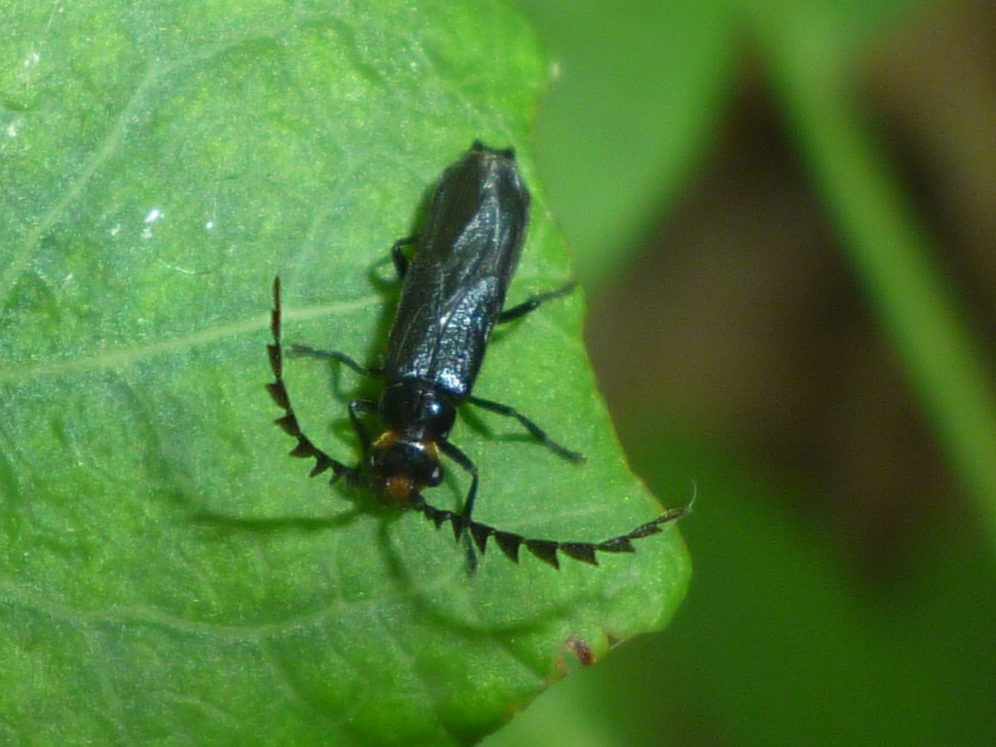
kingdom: Animalia
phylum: Arthropoda
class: Insecta
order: Coleoptera
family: Cantharidae
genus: Tytthonyx
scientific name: Tytthonyx erythrocephalus
